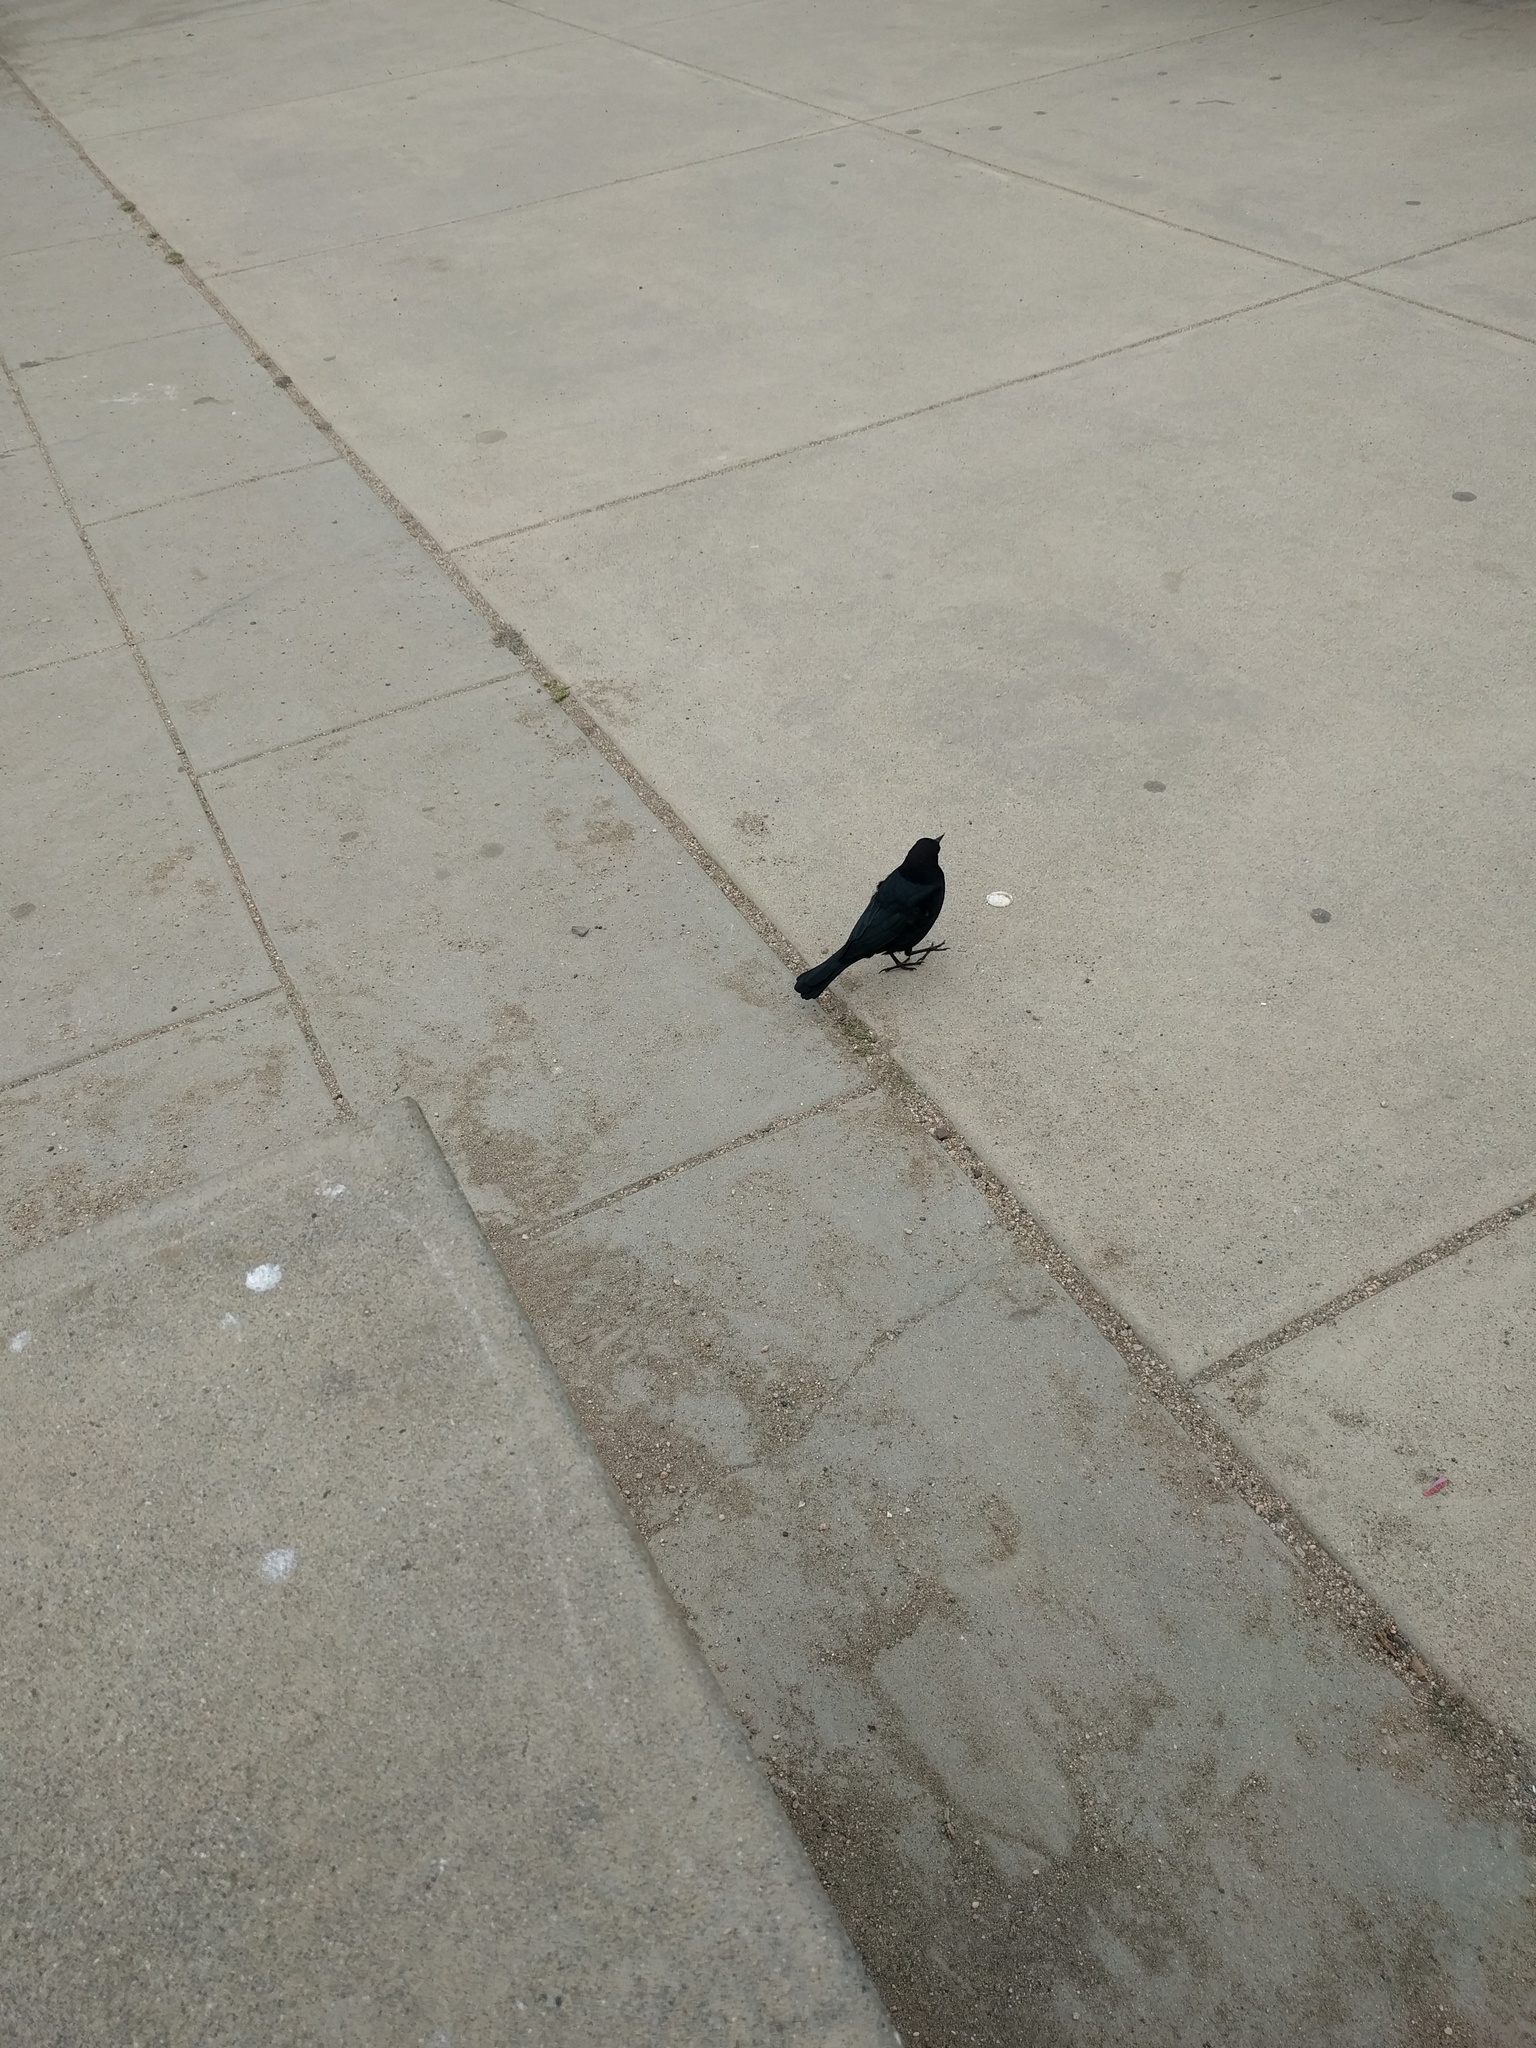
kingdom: Animalia
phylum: Chordata
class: Aves
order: Passeriformes
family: Icteridae
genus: Euphagus
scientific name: Euphagus cyanocephalus
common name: Brewer's blackbird
